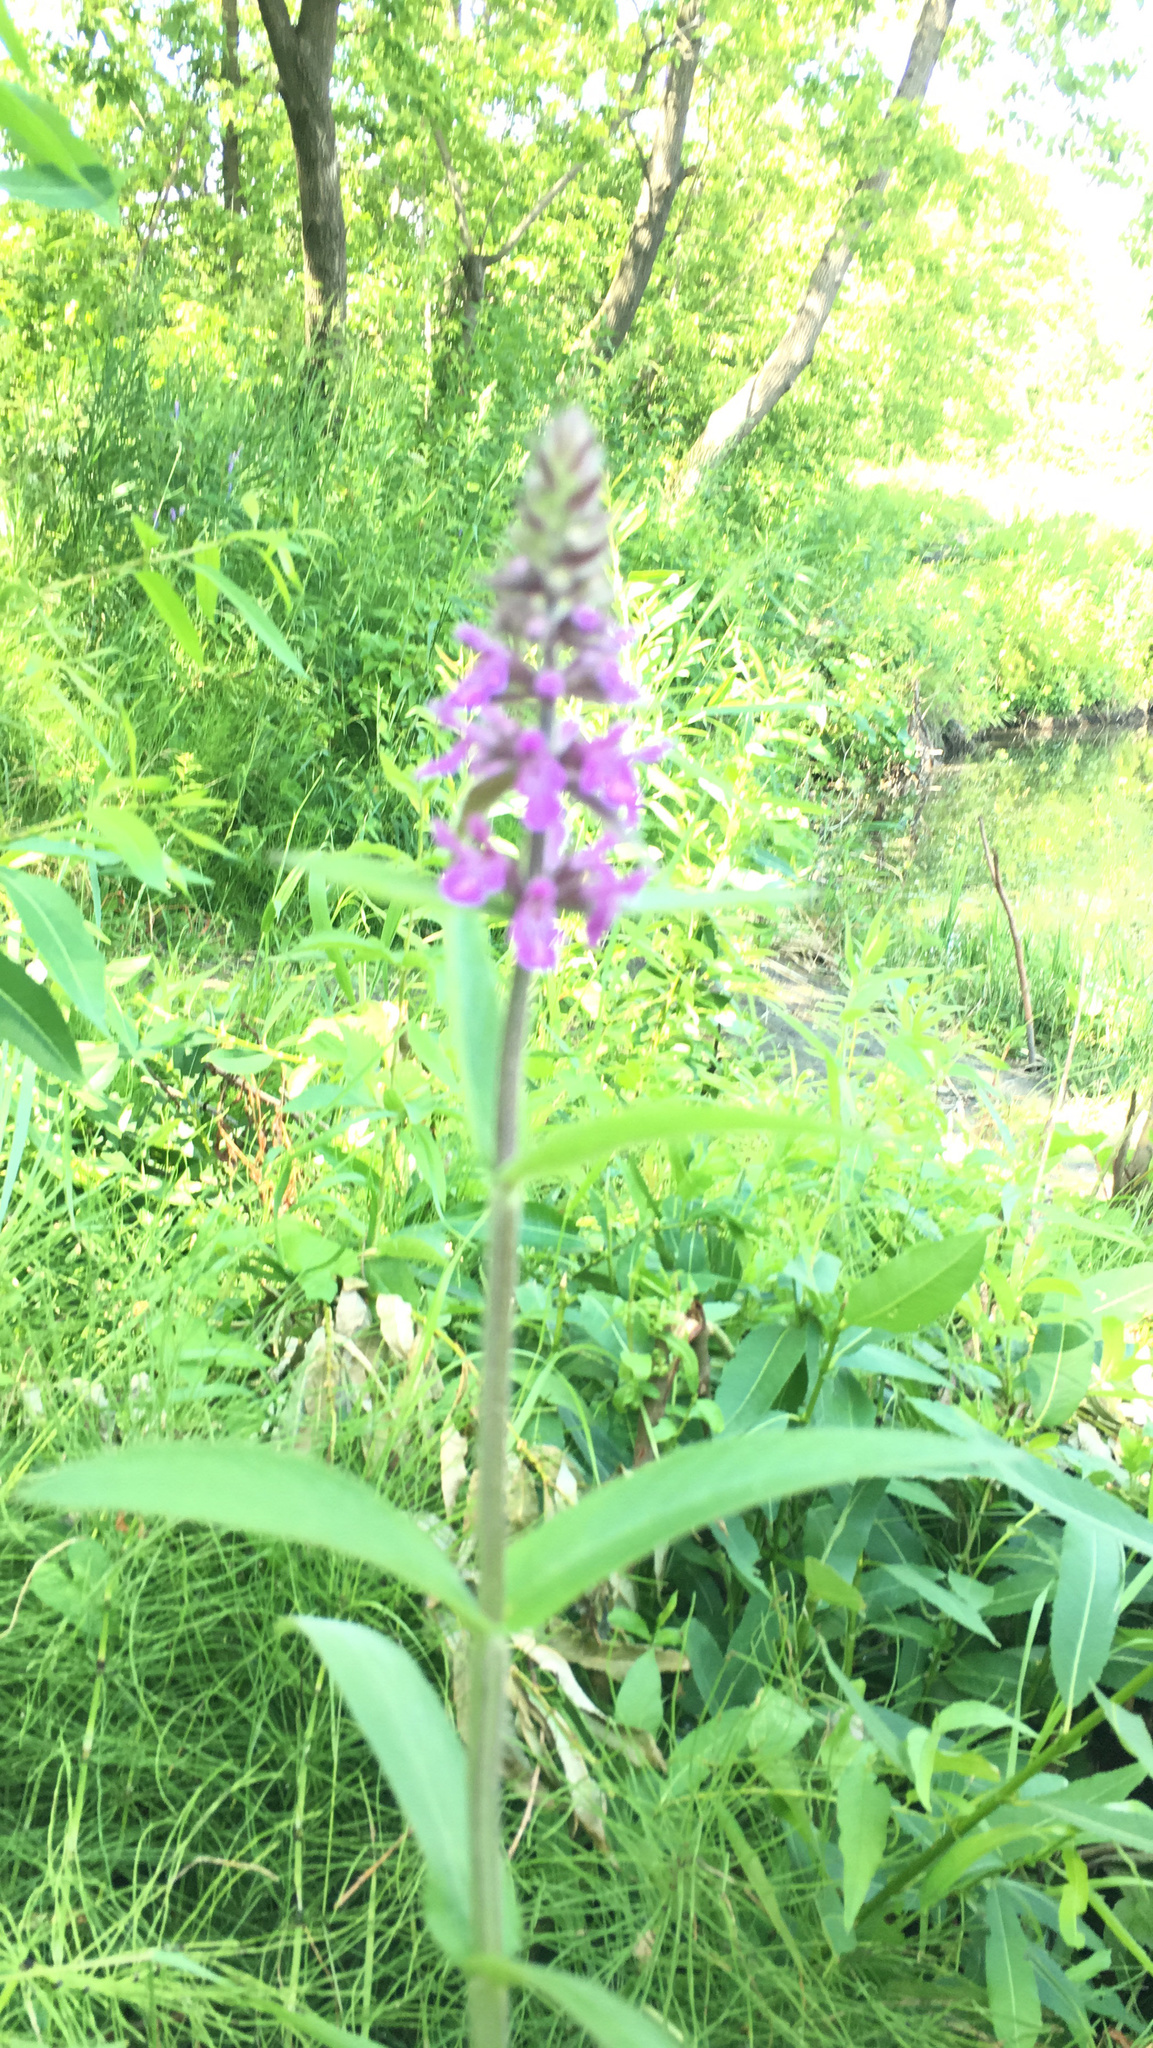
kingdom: Plantae
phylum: Tracheophyta
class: Magnoliopsida
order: Lamiales
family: Lamiaceae
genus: Stachys
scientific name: Stachys palustris
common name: Marsh woundwort
